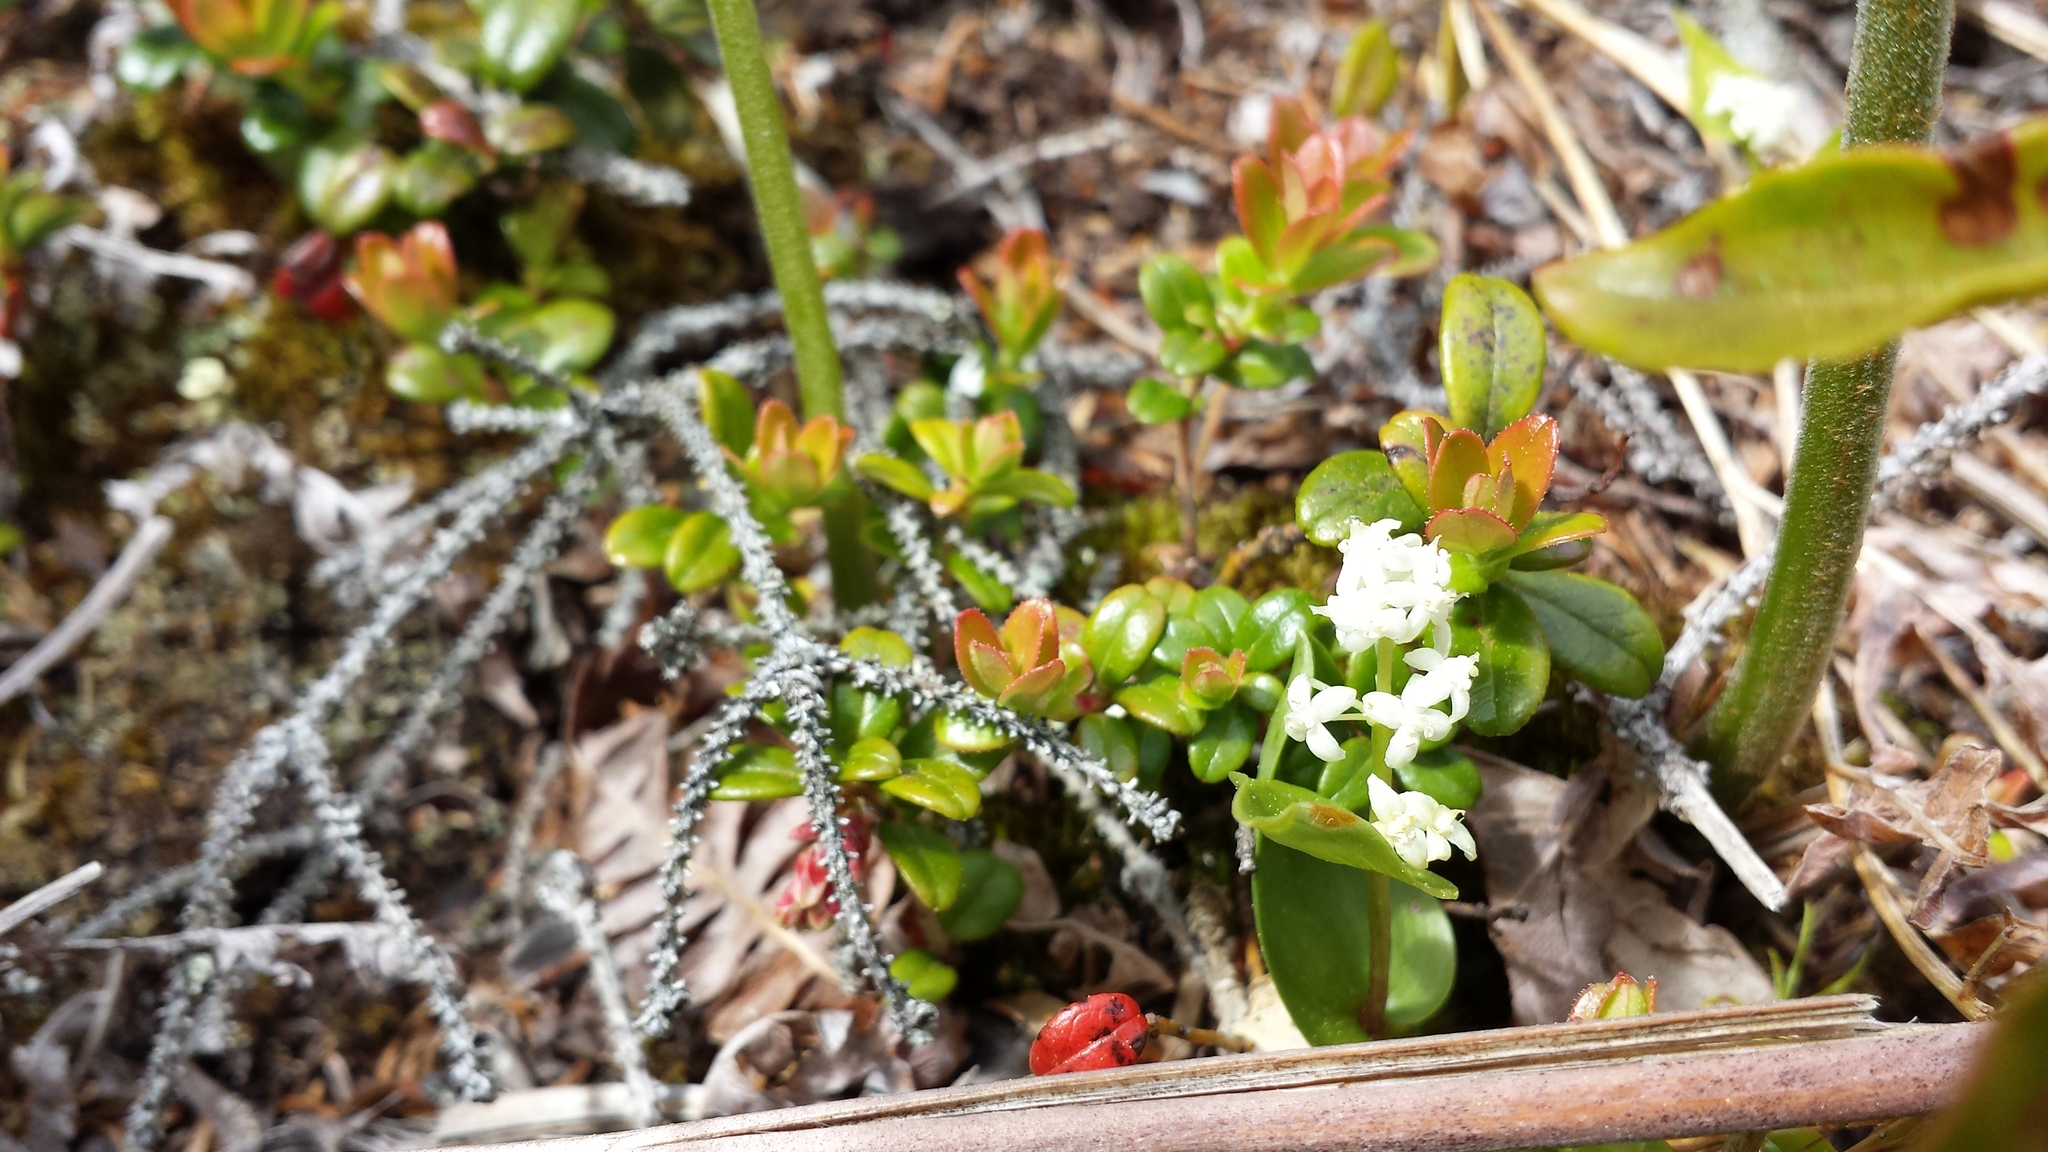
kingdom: Plantae
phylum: Tracheophyta
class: Liliopsida
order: Asparagales
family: Asparagaceae
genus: Maianthemum
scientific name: Maianthemum canadense
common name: False lily-of-the-valley
